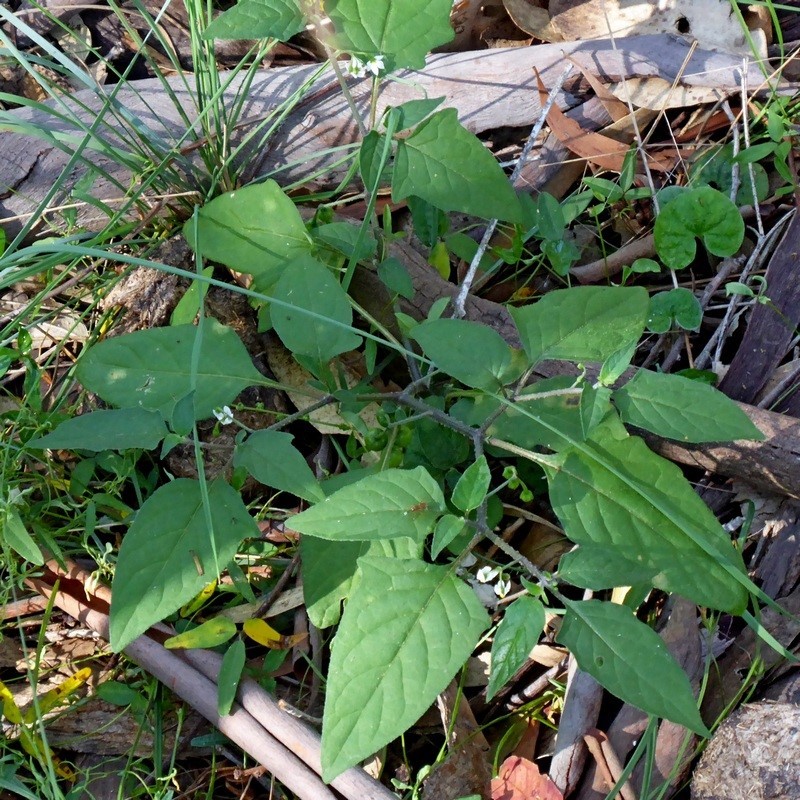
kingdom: Plantae
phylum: Tracheophyta
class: Magnoliopsida
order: Solanales
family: Solanaceae
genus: Solanum
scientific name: Solanum opacum
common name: Green-berry nightshade
